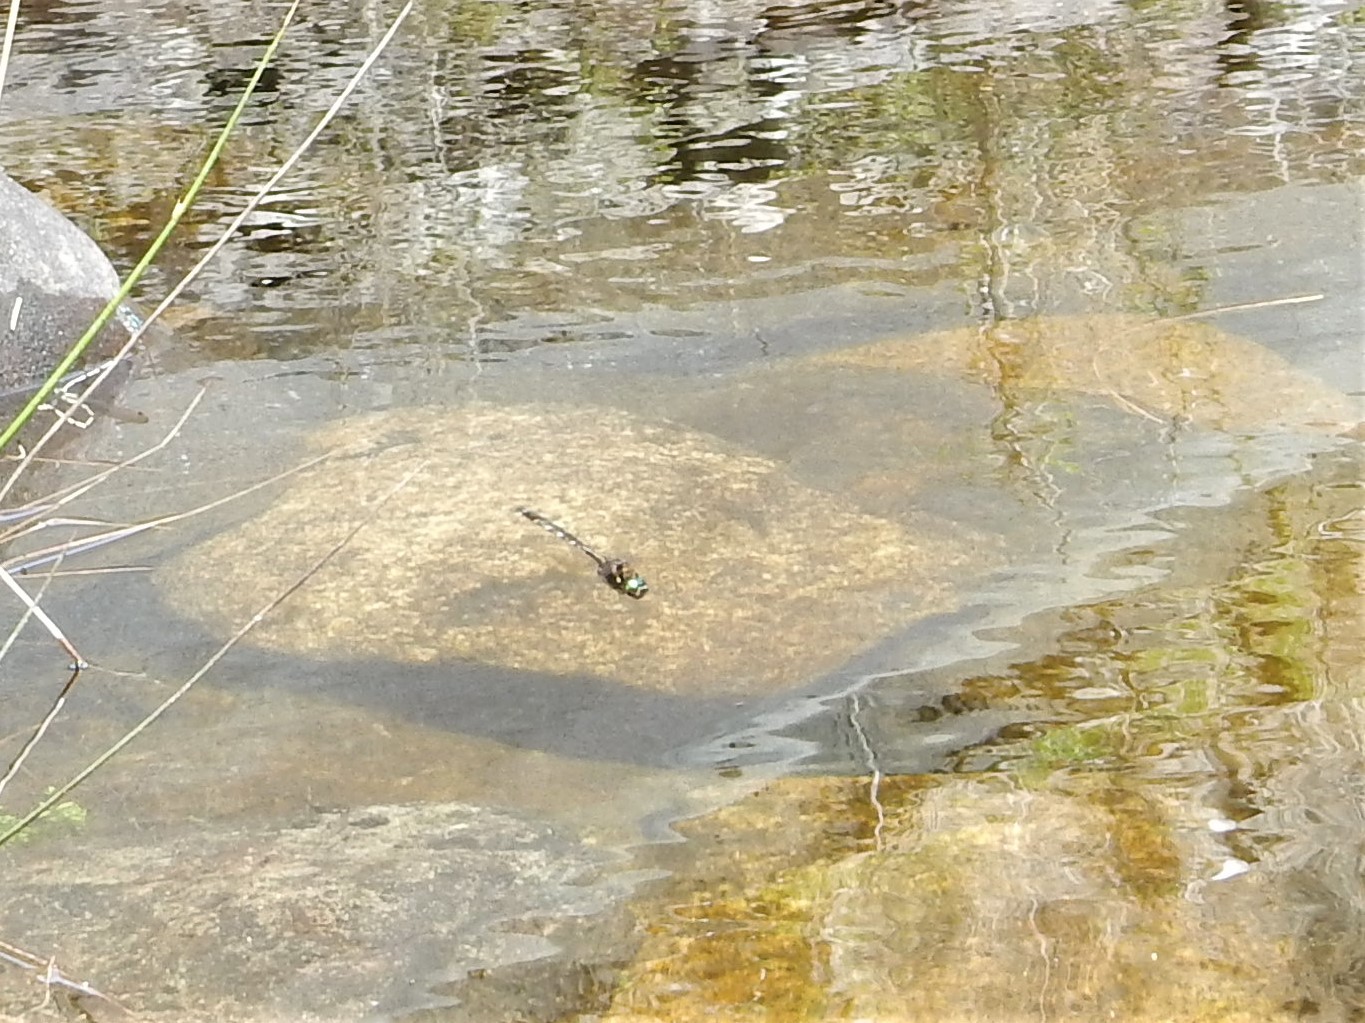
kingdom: Animalia
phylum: Arthropoda
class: Insecta
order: Odonata
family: Corduliidae
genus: Procordulia
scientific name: Procordulia grayi
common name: Yellow spotted dragonfly
